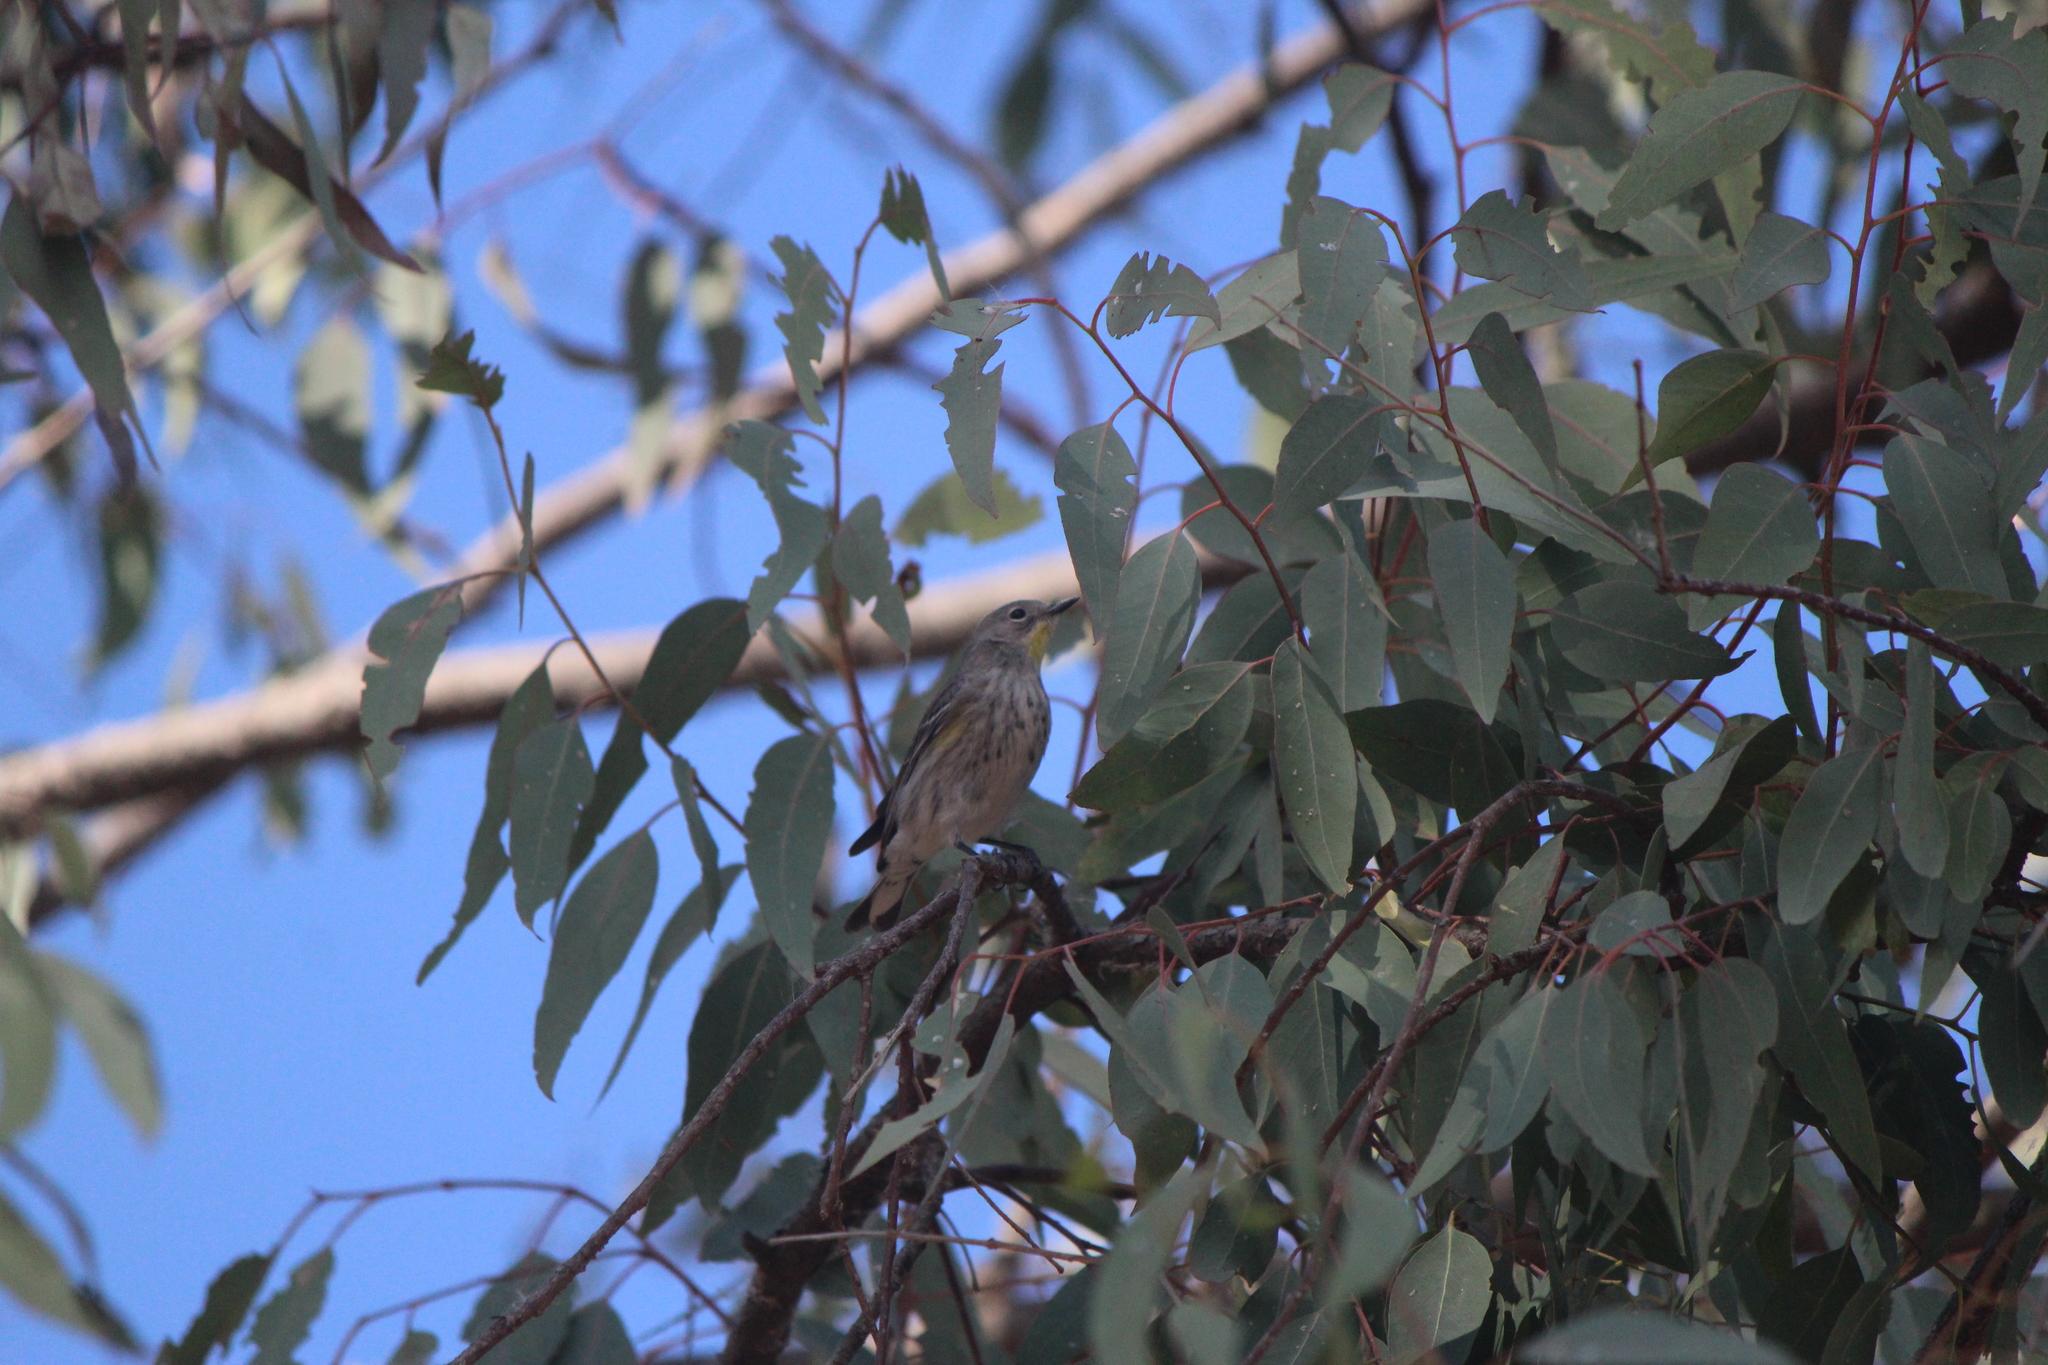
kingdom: Animalia
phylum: Chordata
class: Aves
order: Passeriformes
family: Parulidae
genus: Setophaga
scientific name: Setophaga auduboni
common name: Audubon's warbler
